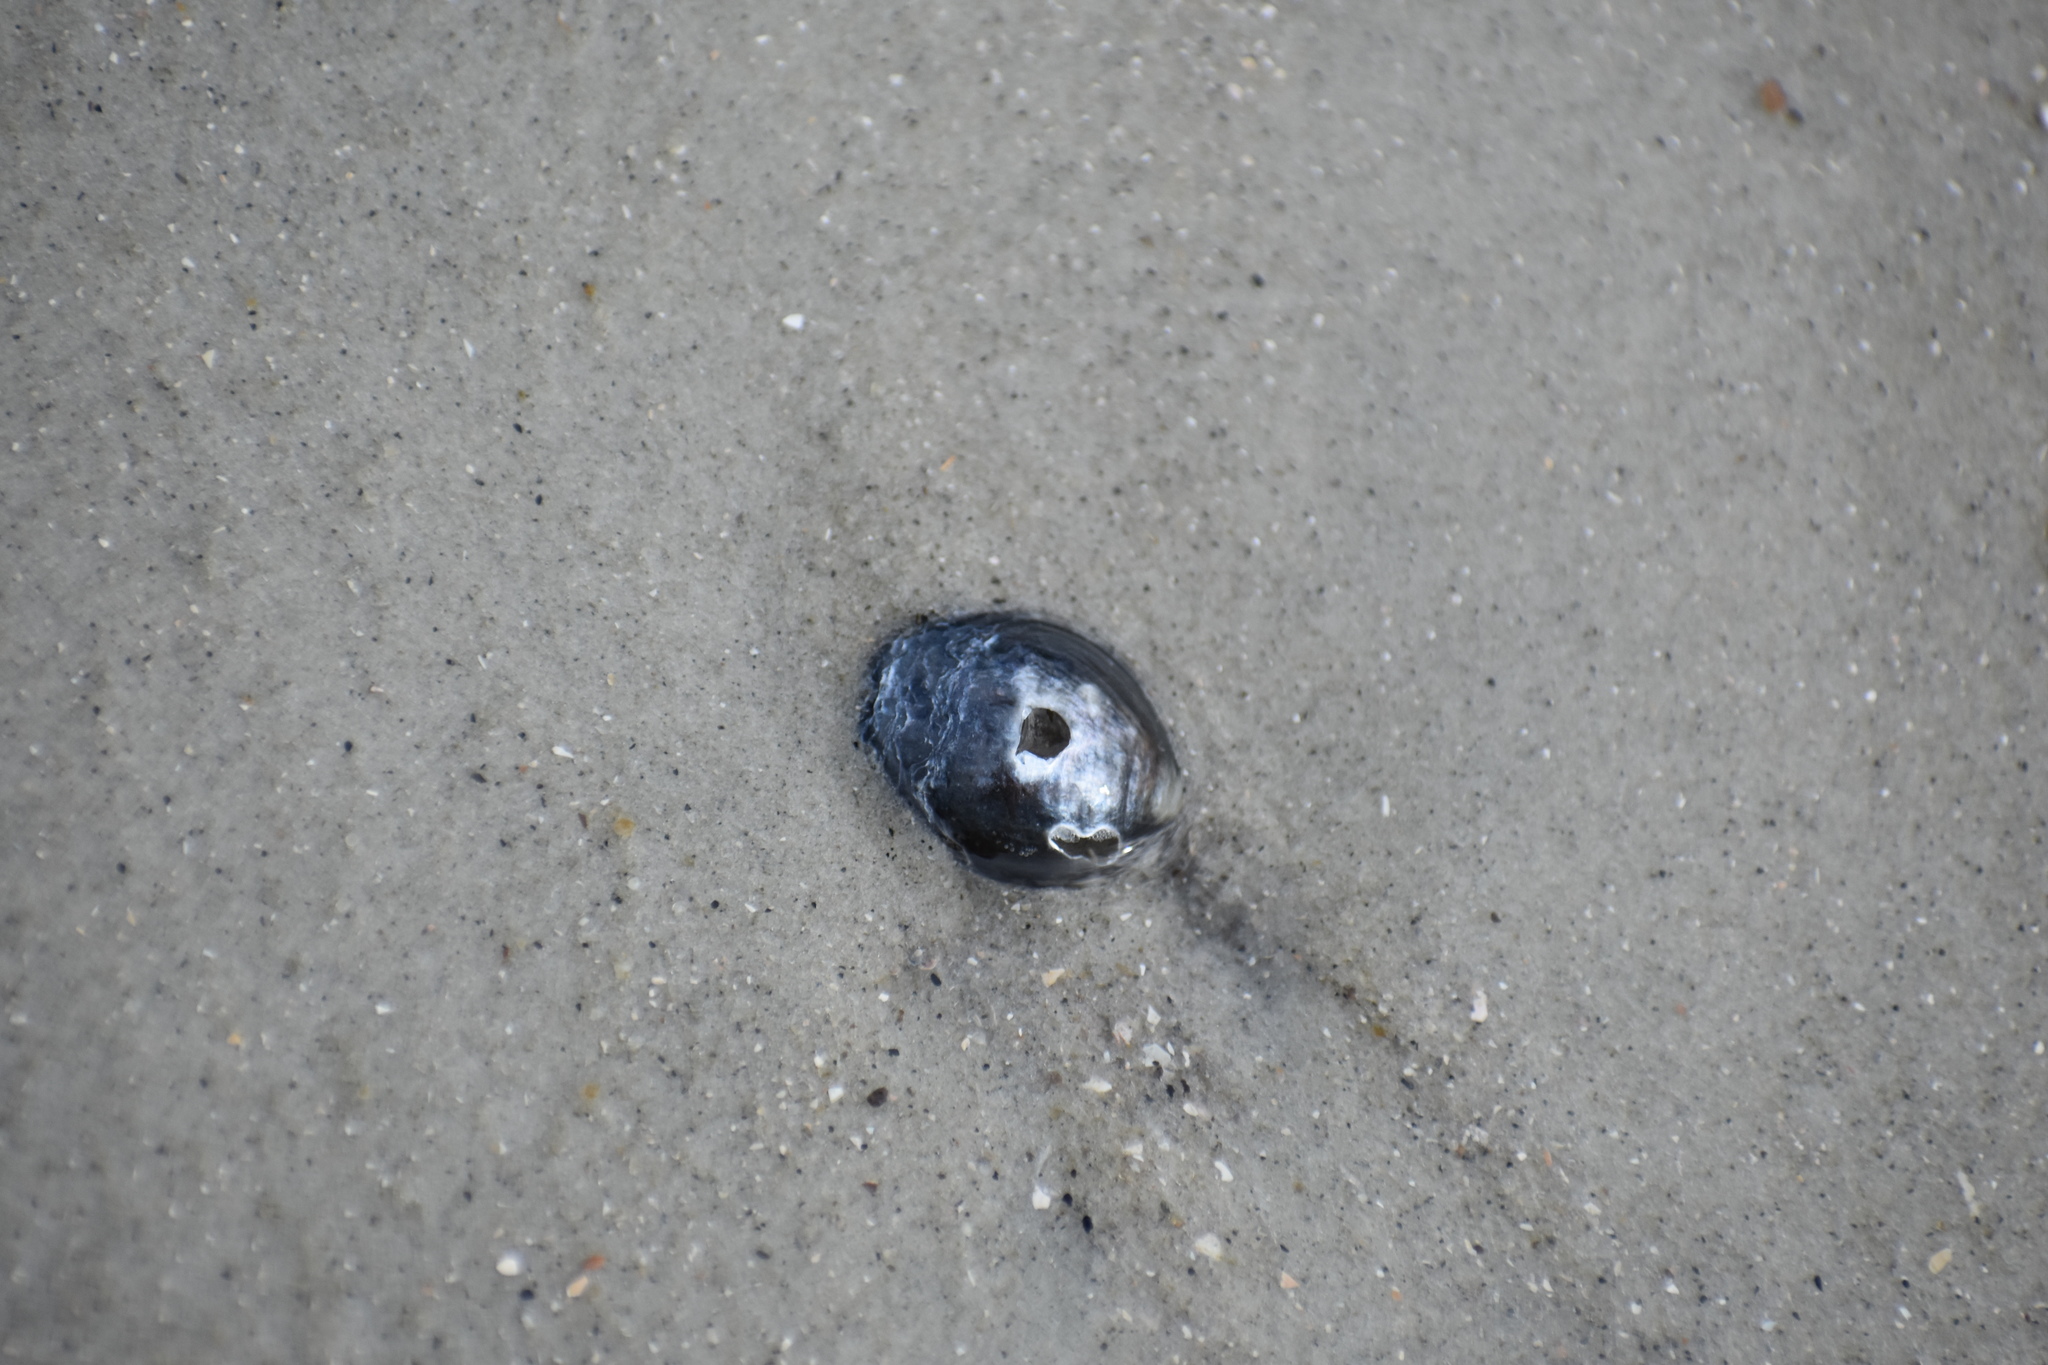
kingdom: Animalia
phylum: Mollusca
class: Bivalvia
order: Pectinida
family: Anomiidae
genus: Anomia
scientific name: Anomia simplex
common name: Common jingle shell
